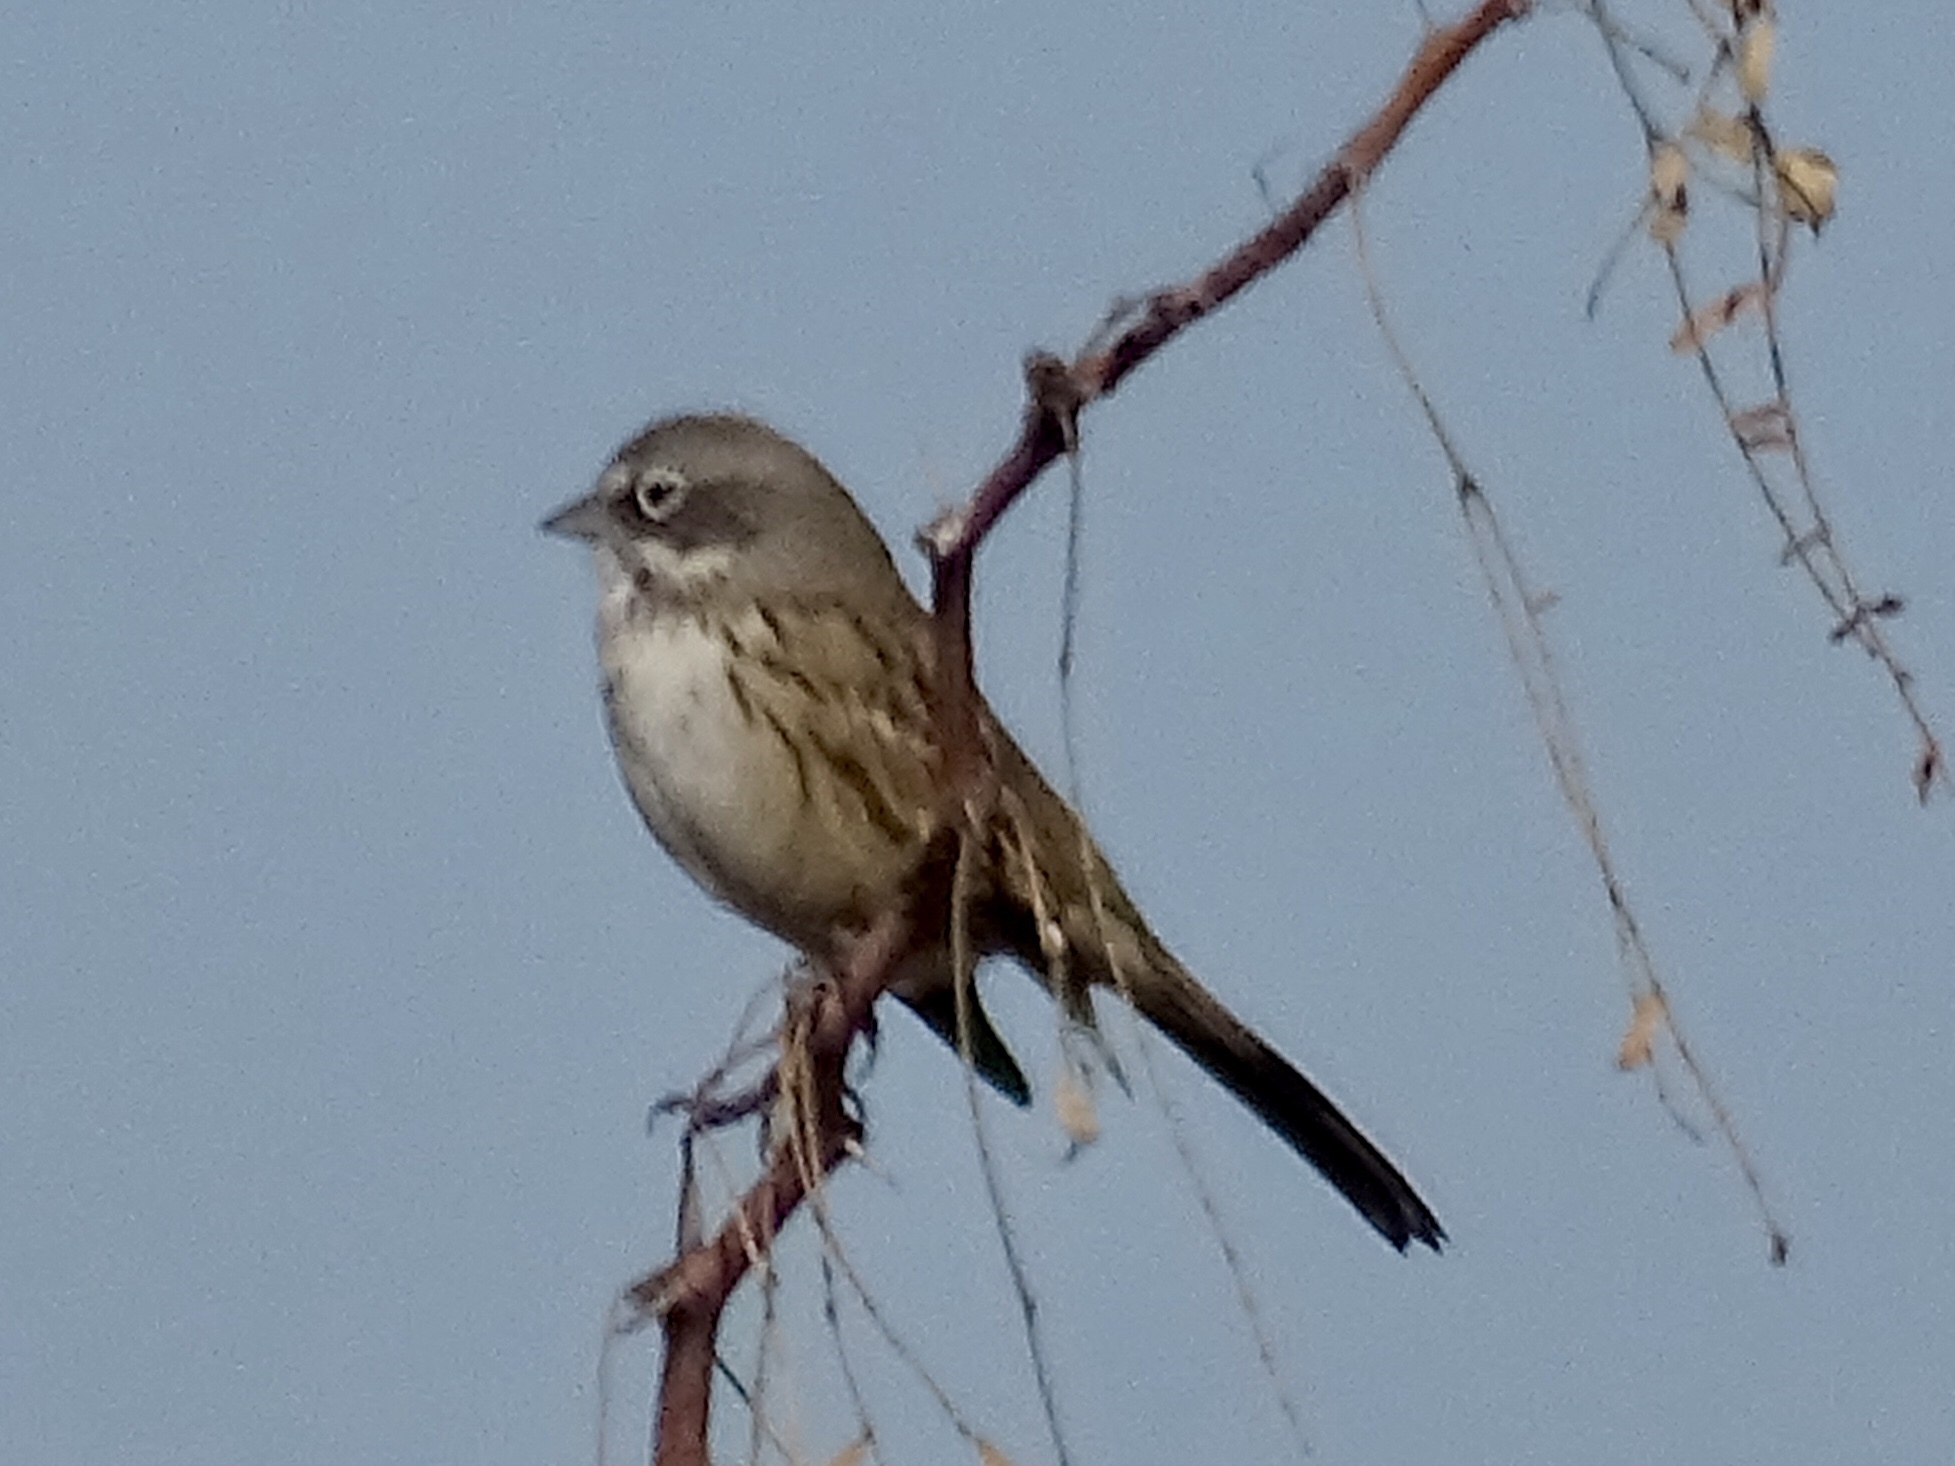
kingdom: Animalia
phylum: Chordata
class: Aves
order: Passeriformes
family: Passerellidae
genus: Artemisiospiza
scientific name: Artemisiospiza nevadensis
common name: Sagebrush sparrow
